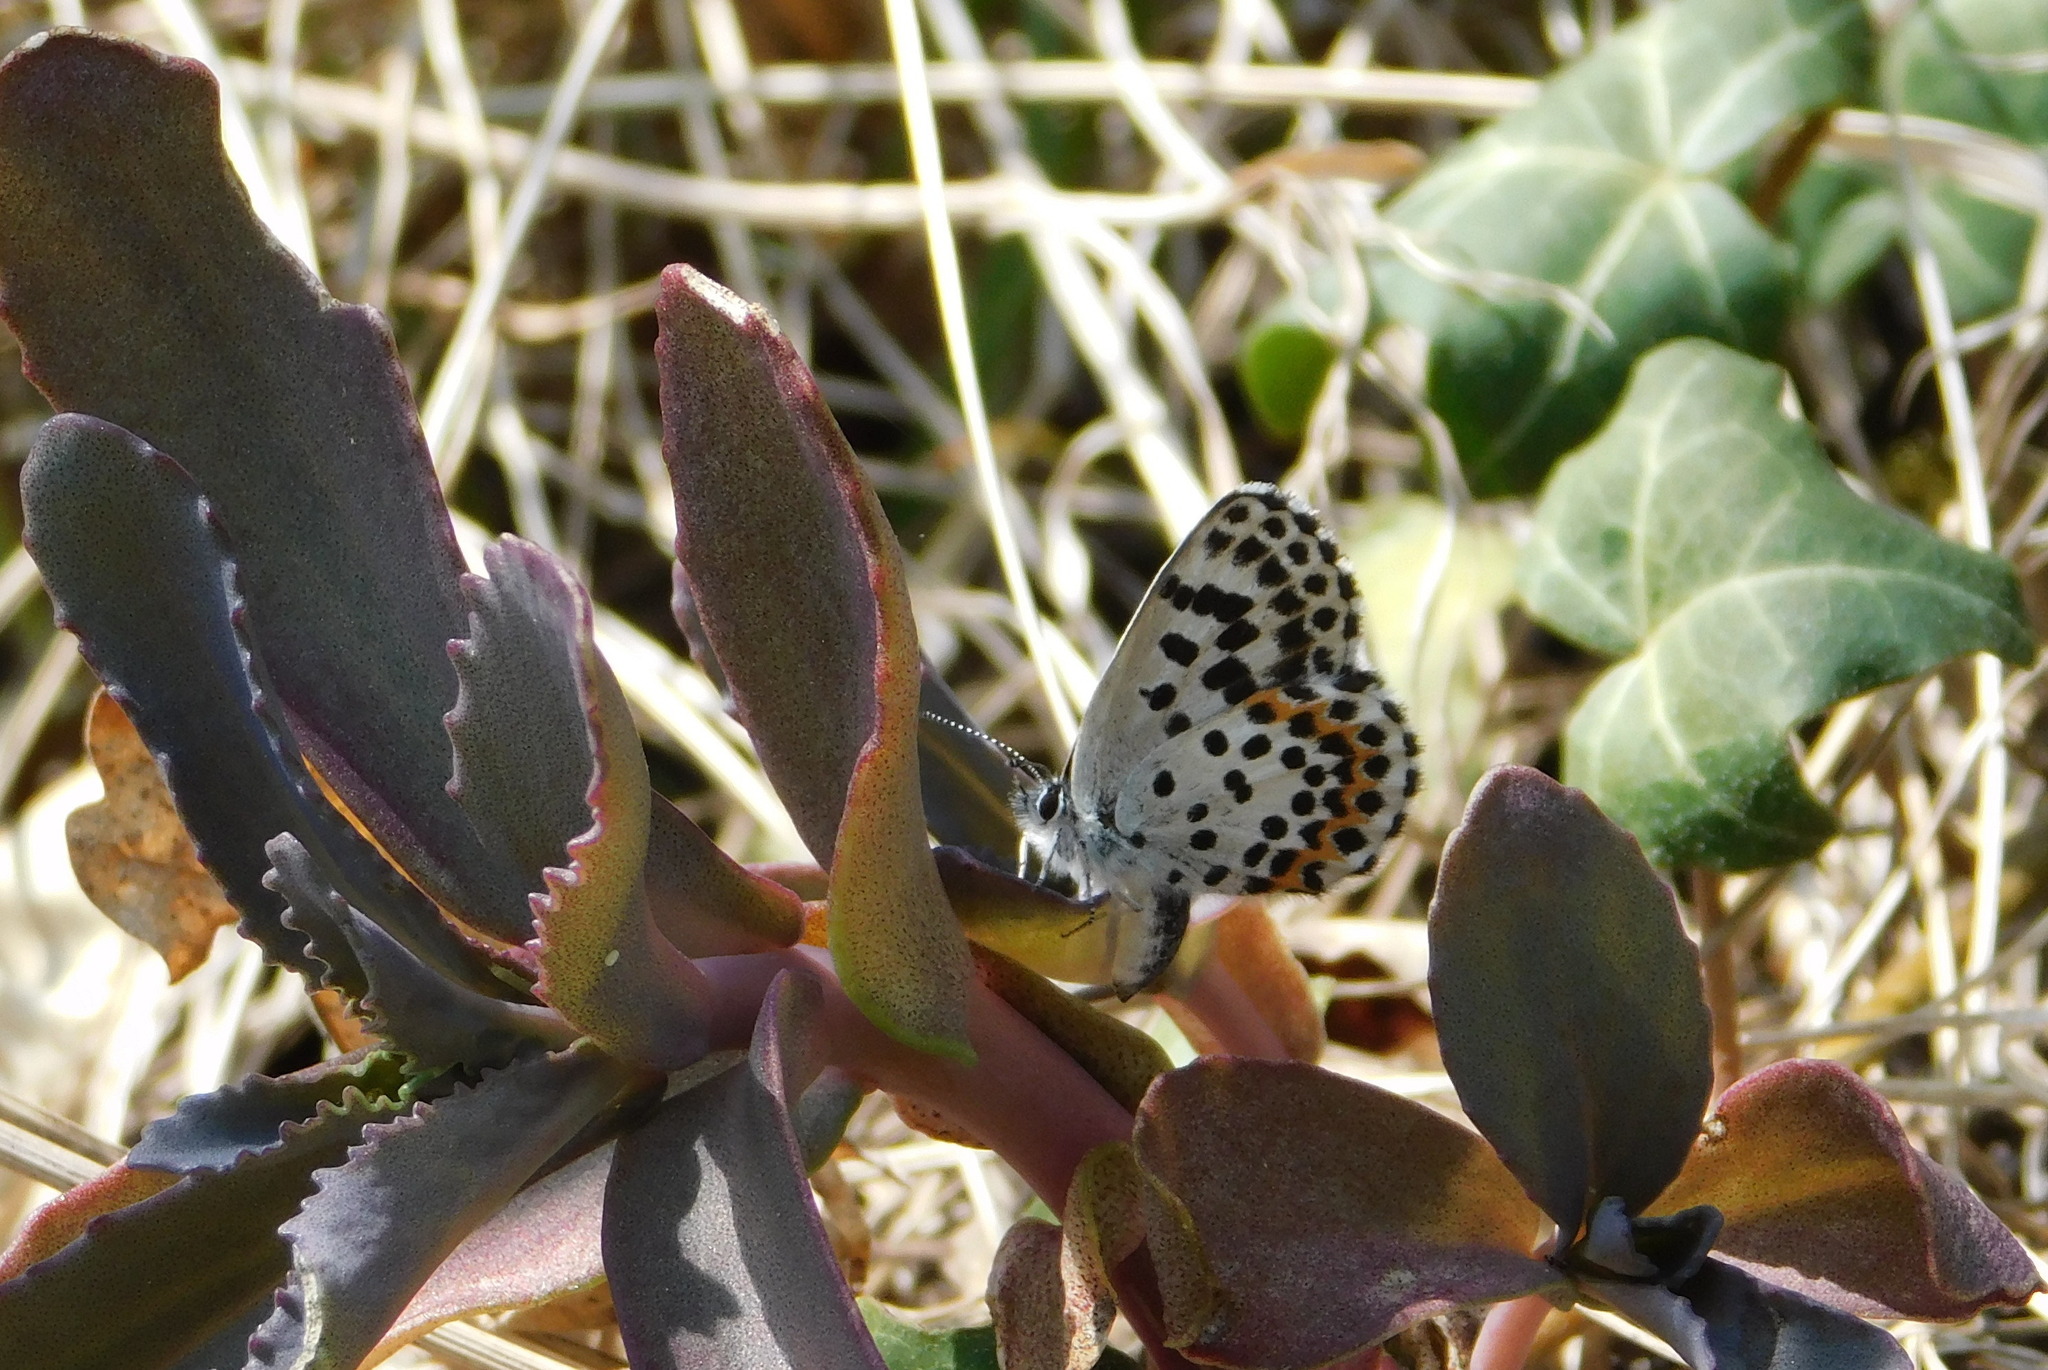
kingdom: Animalia
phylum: Arthropoda
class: Insecta
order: Lepidoptera
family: Lycaenidae
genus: Scolitantides
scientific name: Scolitantides orion
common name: Chequered blue
